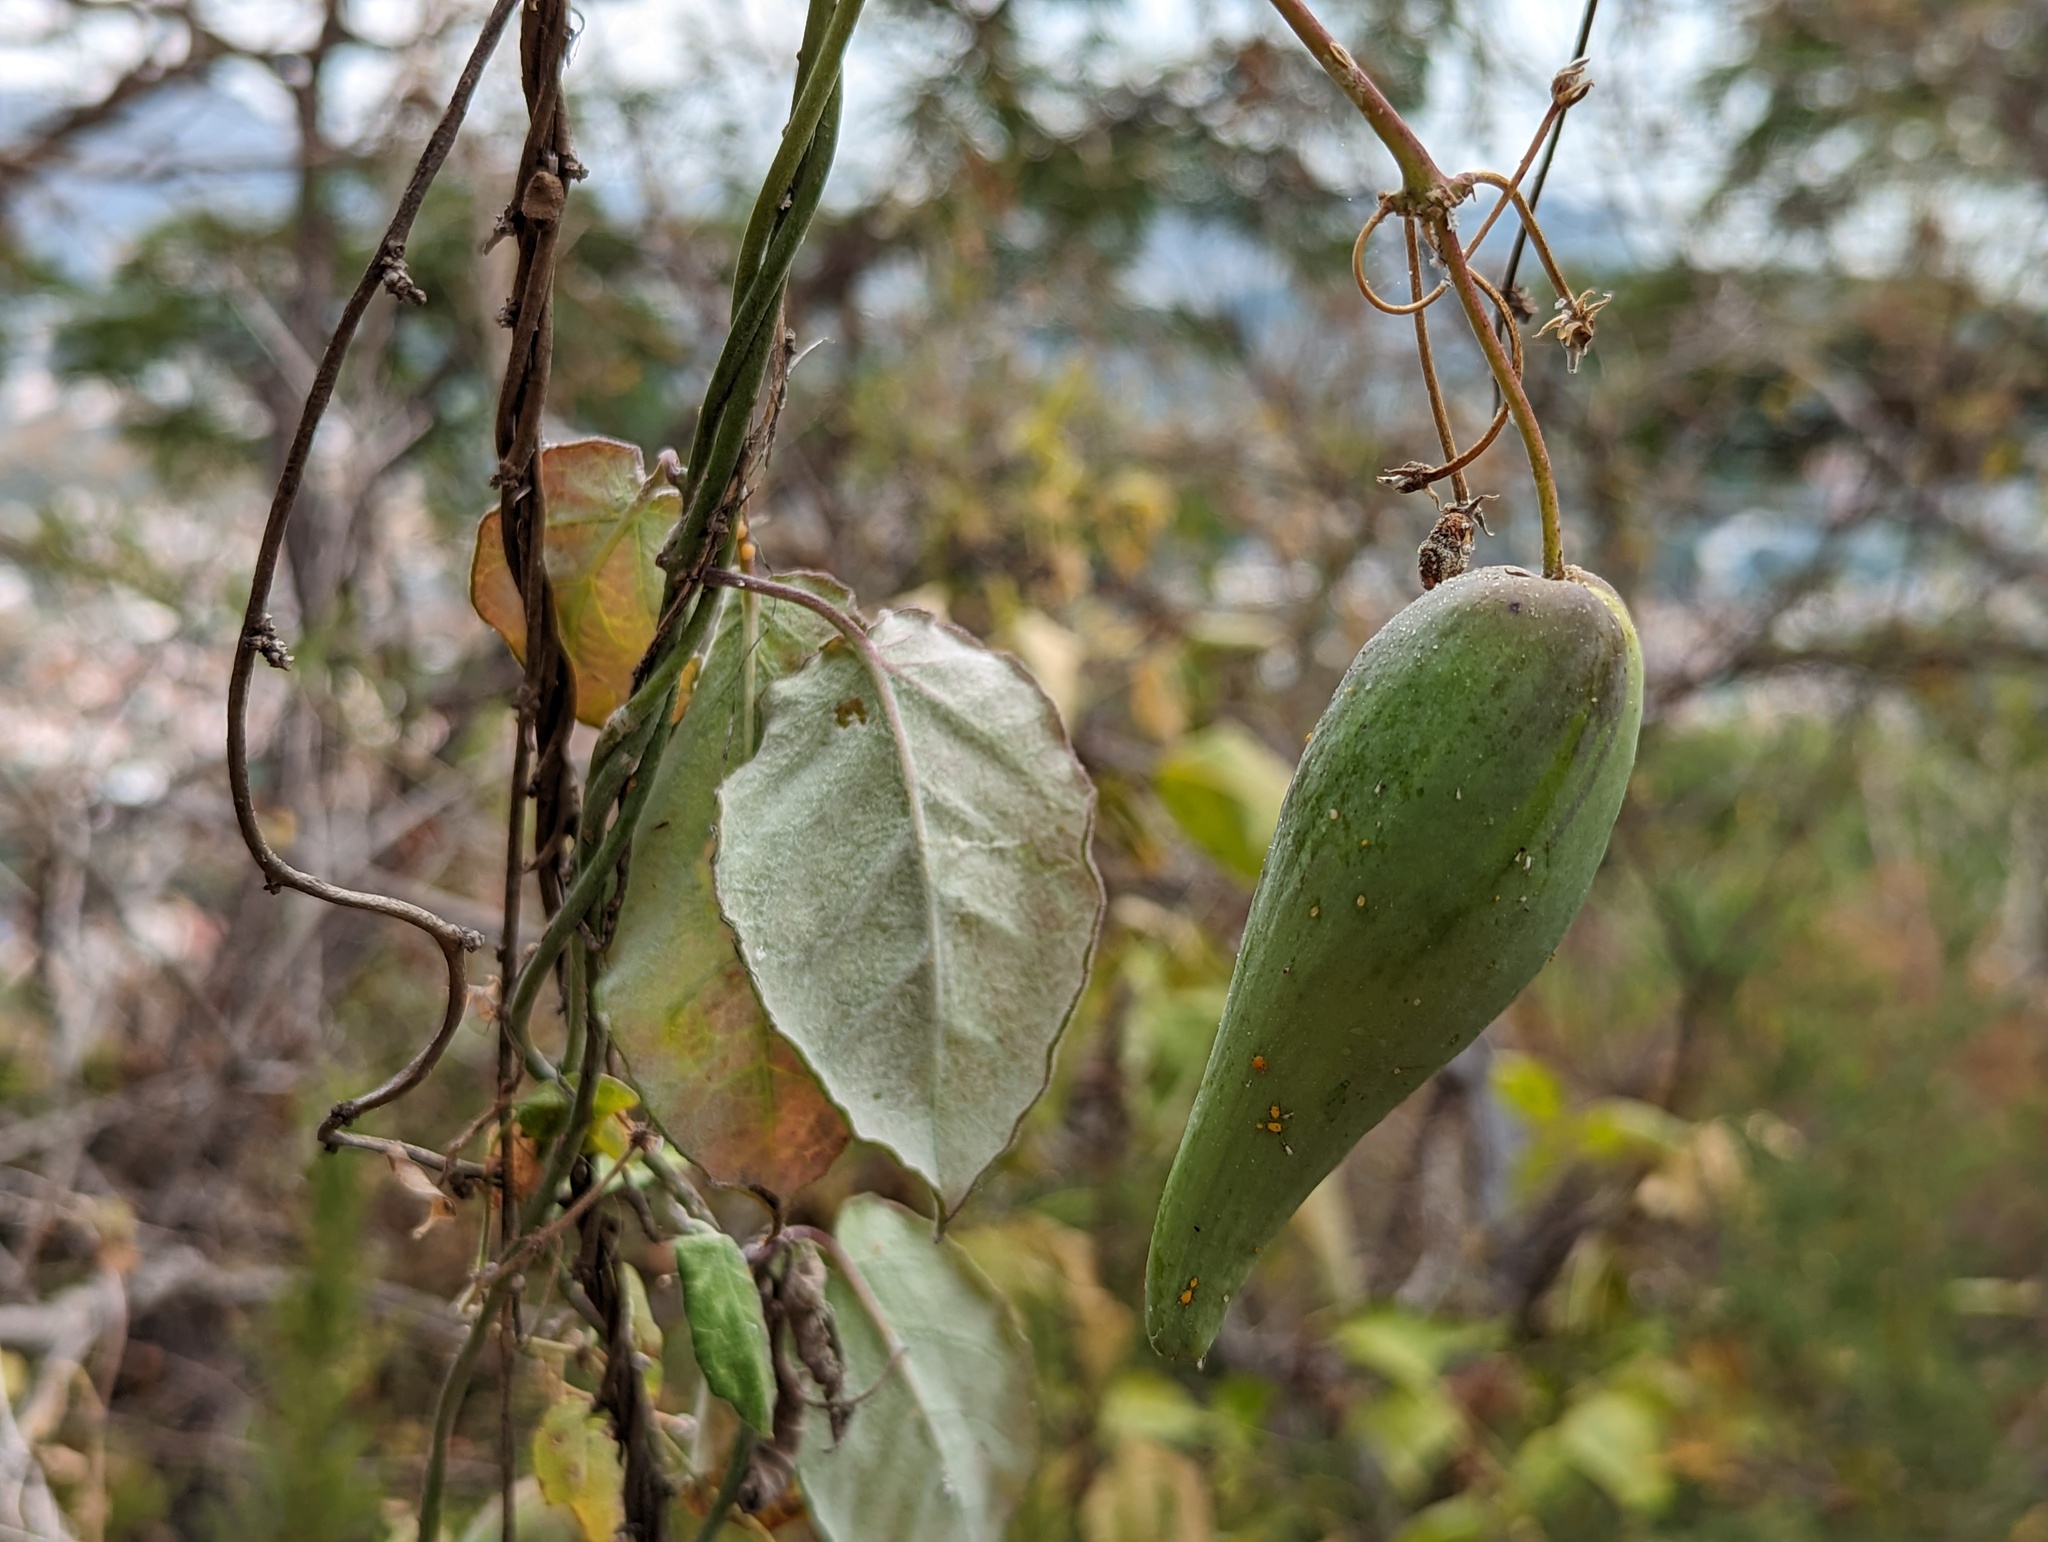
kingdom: Plantae
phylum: Tracheophyta
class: Magnoliopsida
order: Gentianales
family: Apocynaceae
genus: Funastrum
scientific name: Funastrum pannosum
